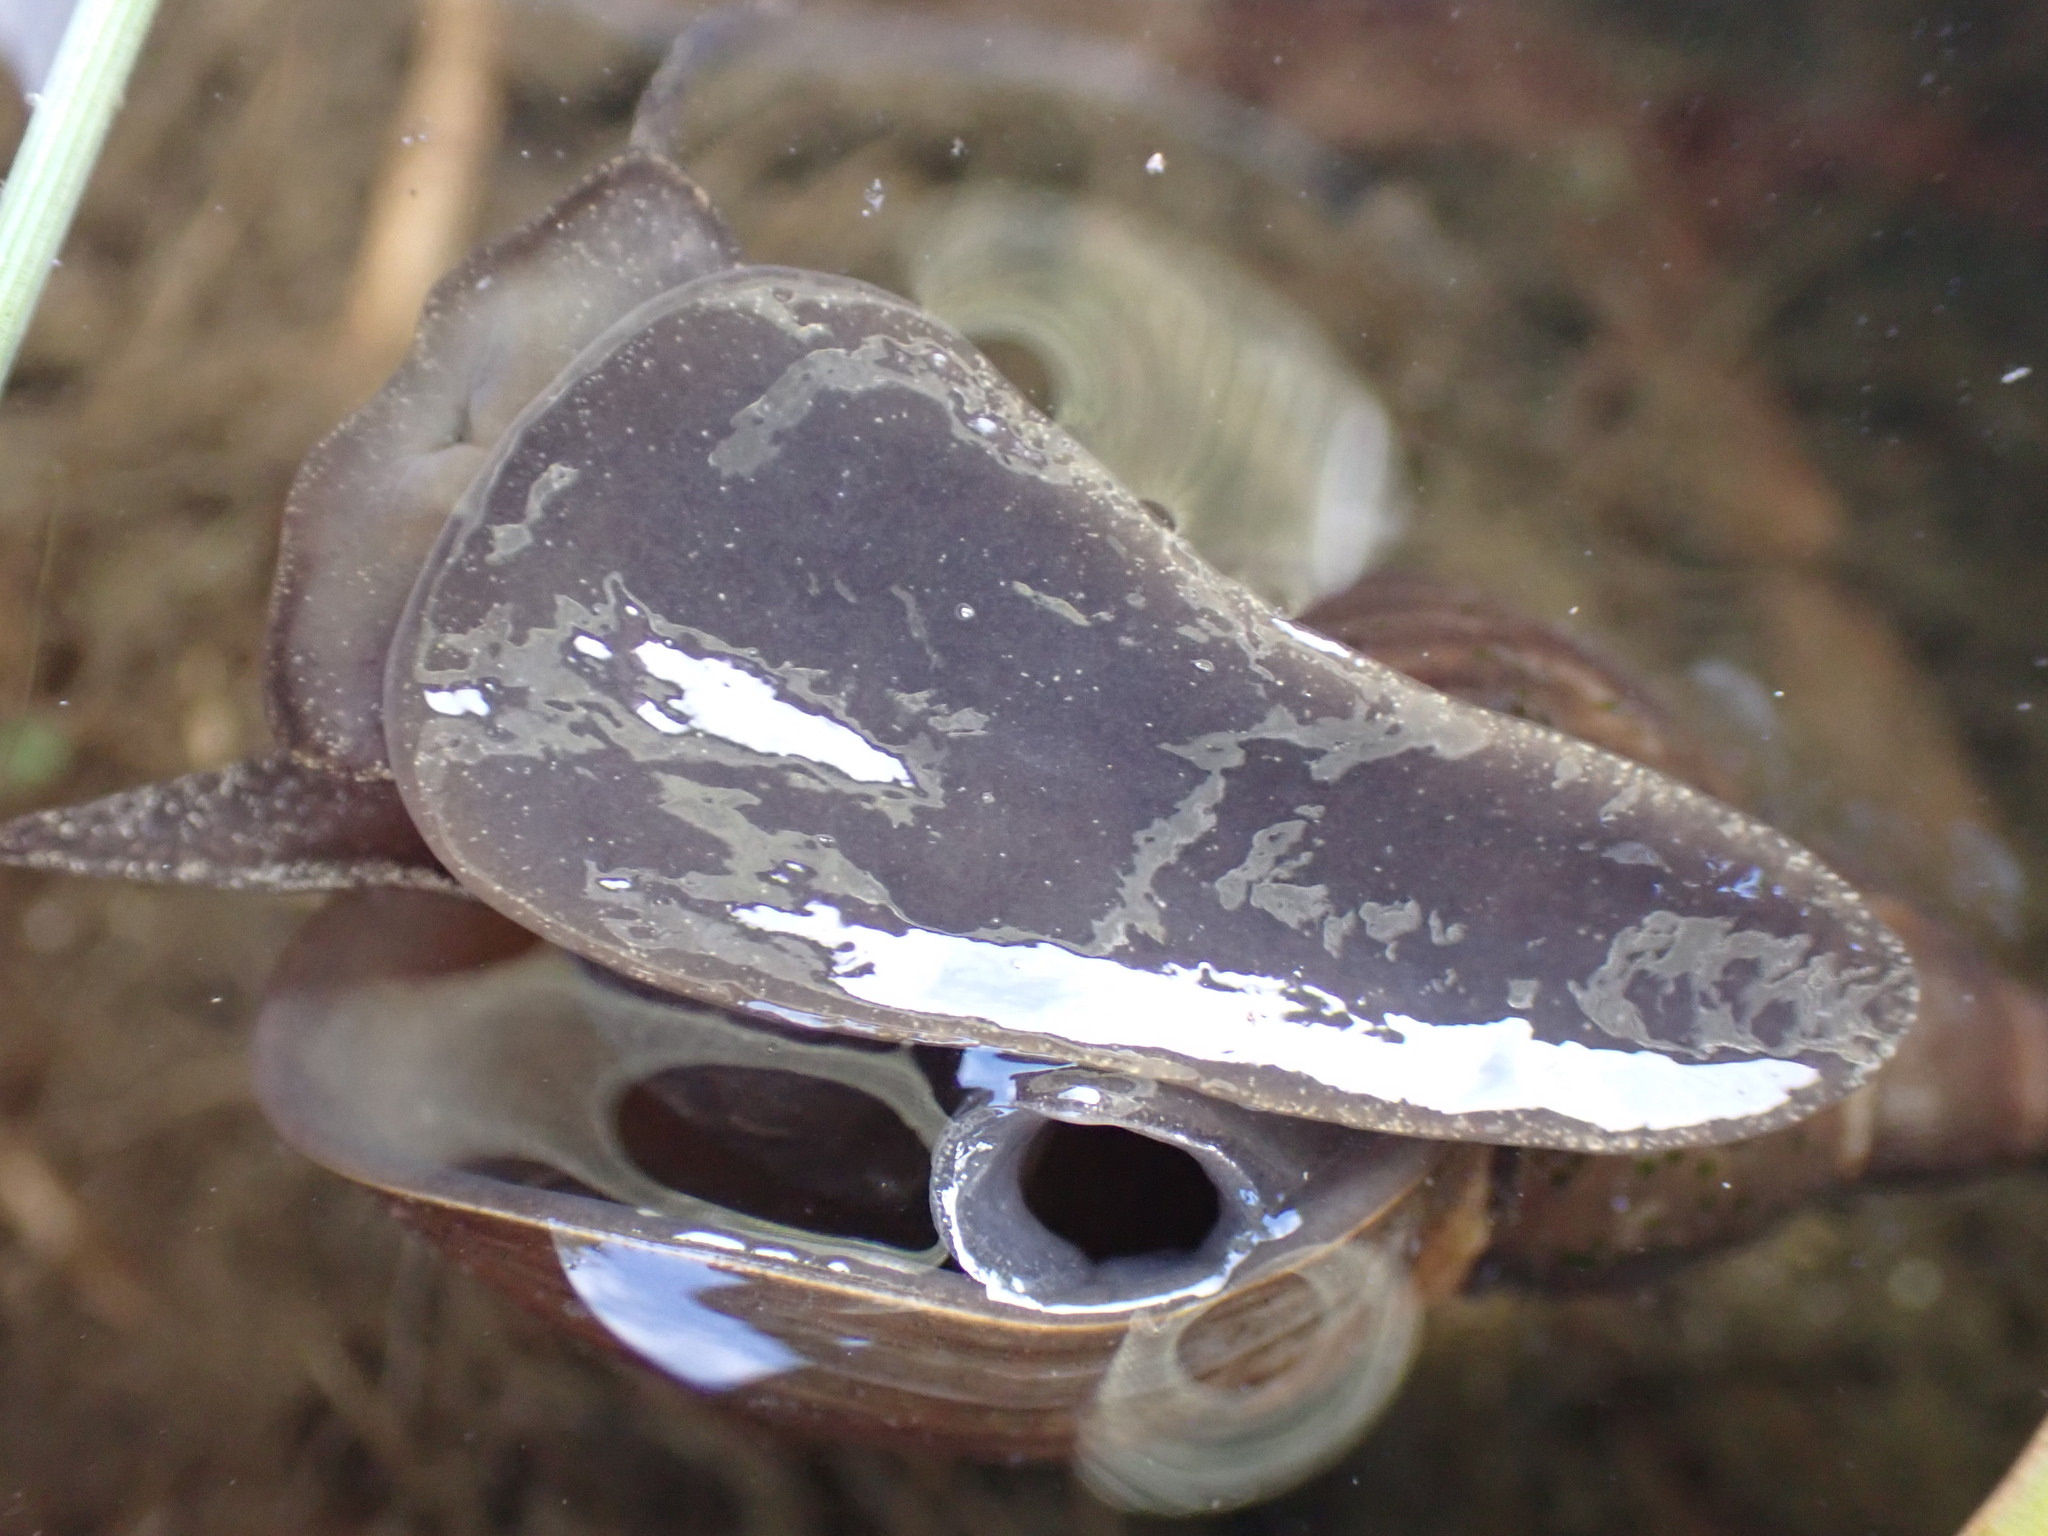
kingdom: Animalia
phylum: Mollusca
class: Gastropoda
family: Lymnaeidae
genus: Lymnaea
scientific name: Lymnaea stagnalis
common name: Great pond snail
